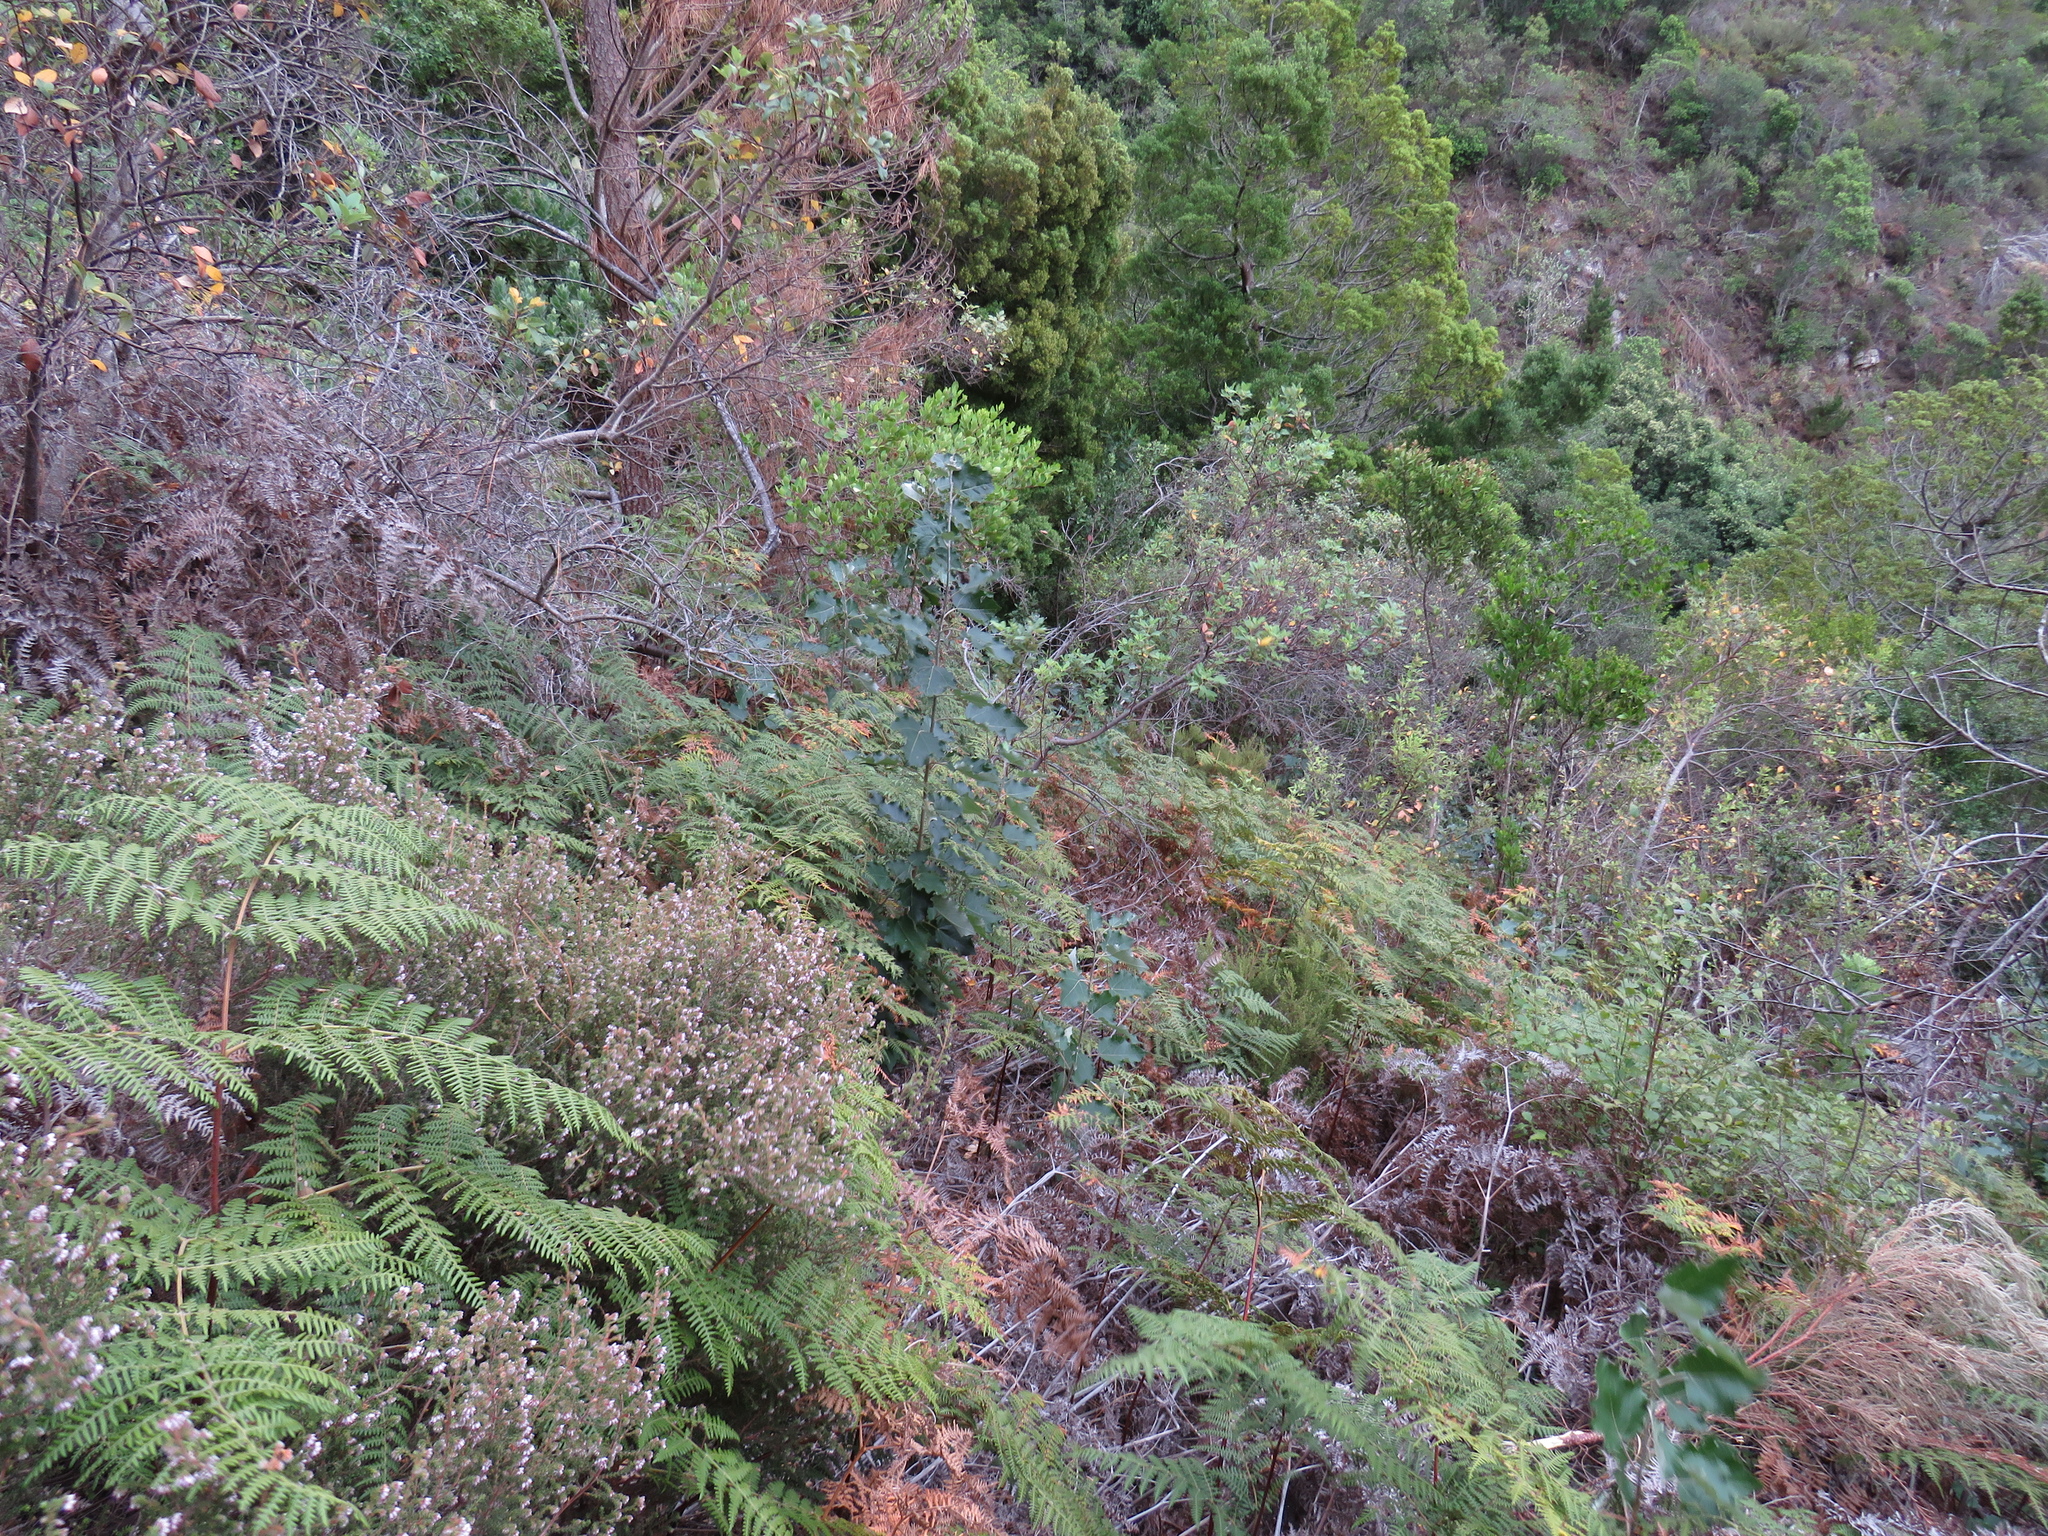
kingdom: Plantae
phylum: Tracheophyta
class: Magnoliopsida
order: Malpighiales
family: Salicaceae
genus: Populus
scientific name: Populus canescens
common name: Gray poplar
